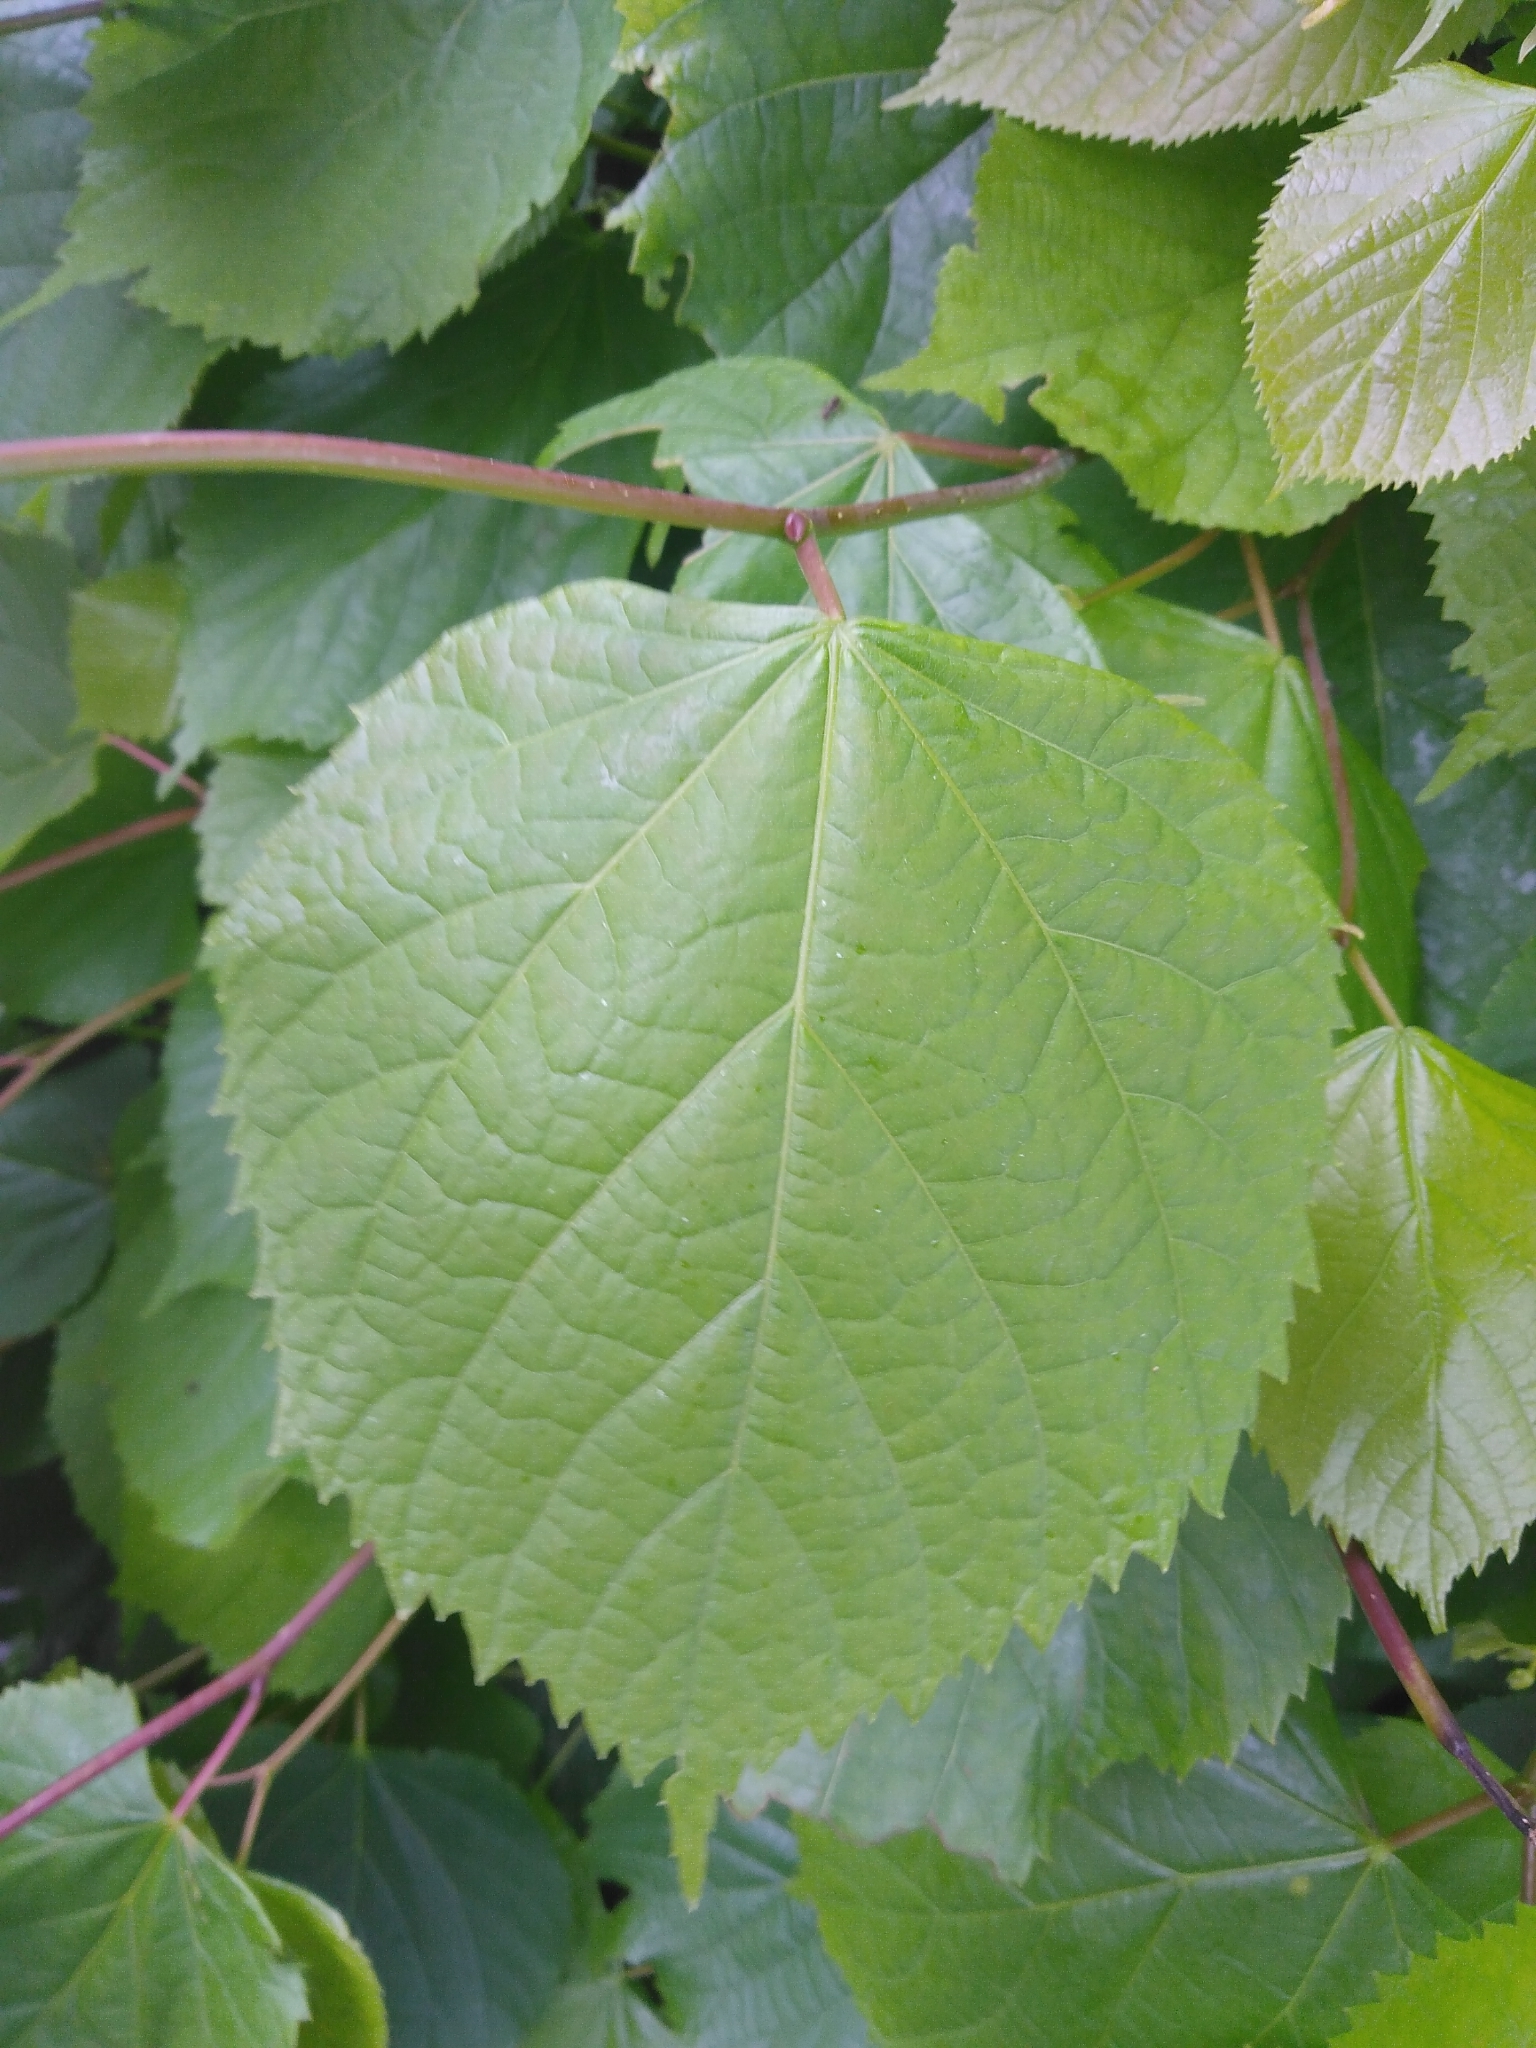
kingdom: Plantae
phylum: Tracheophyta
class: Magnoliopsida
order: Malvales
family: Malvaceae
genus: Tilia
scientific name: Tilia europaea
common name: European linden
